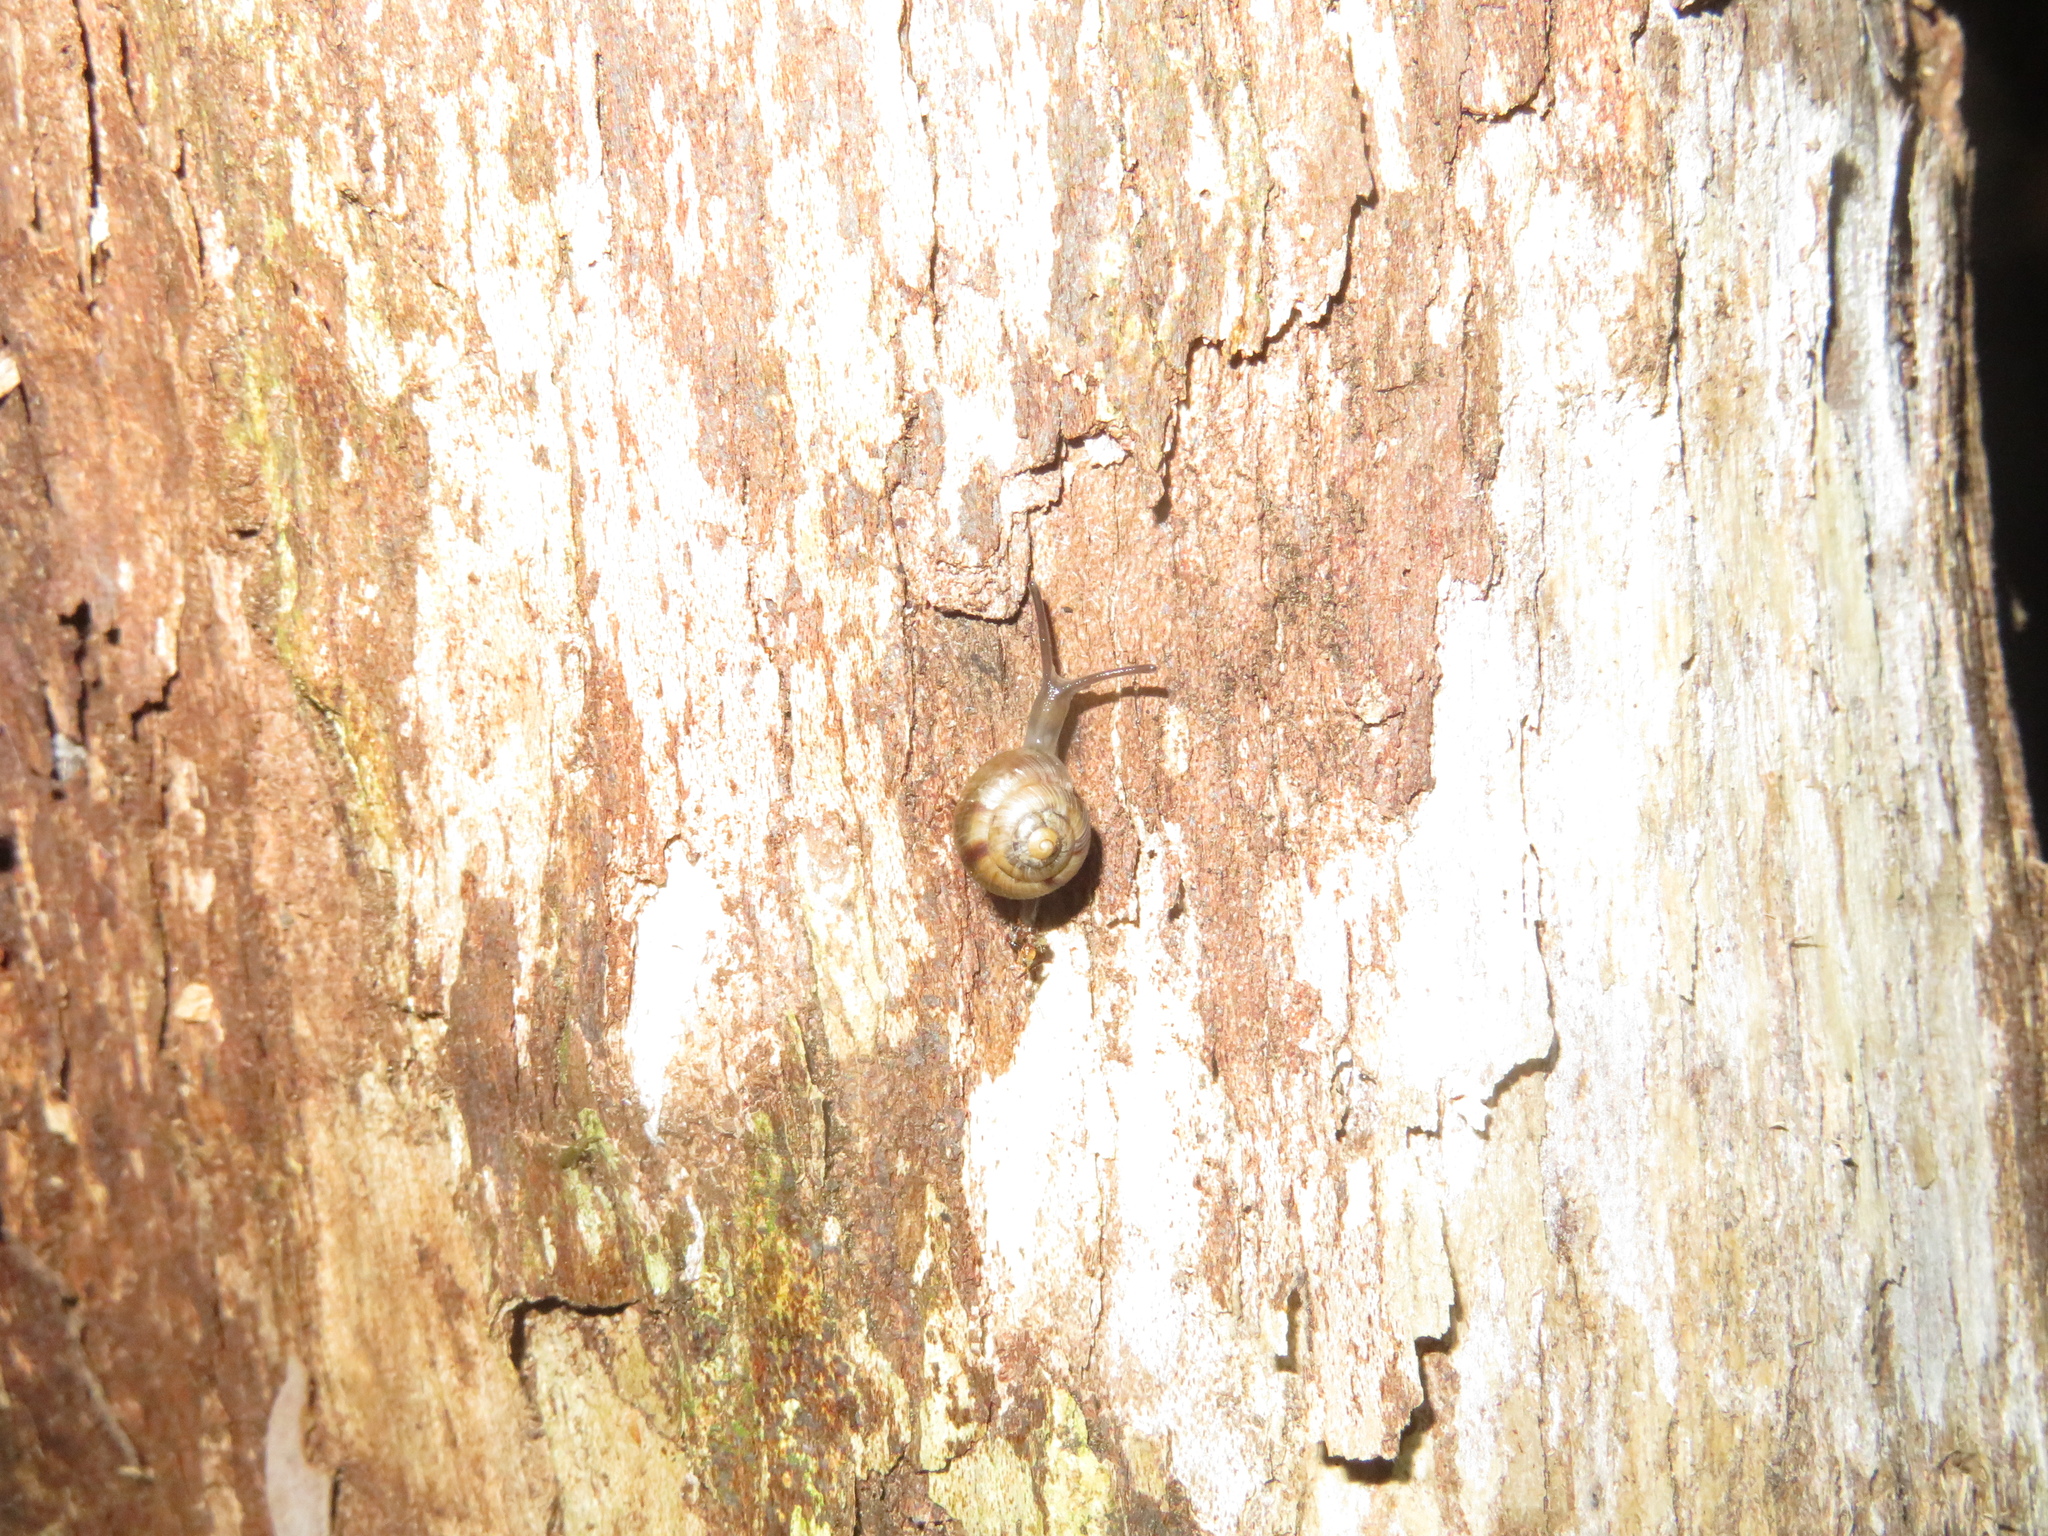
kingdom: Animalia
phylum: Mollusca
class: Gastropoda
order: Stylommatophora
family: Charopidae
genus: Serpho
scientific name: Serpho
